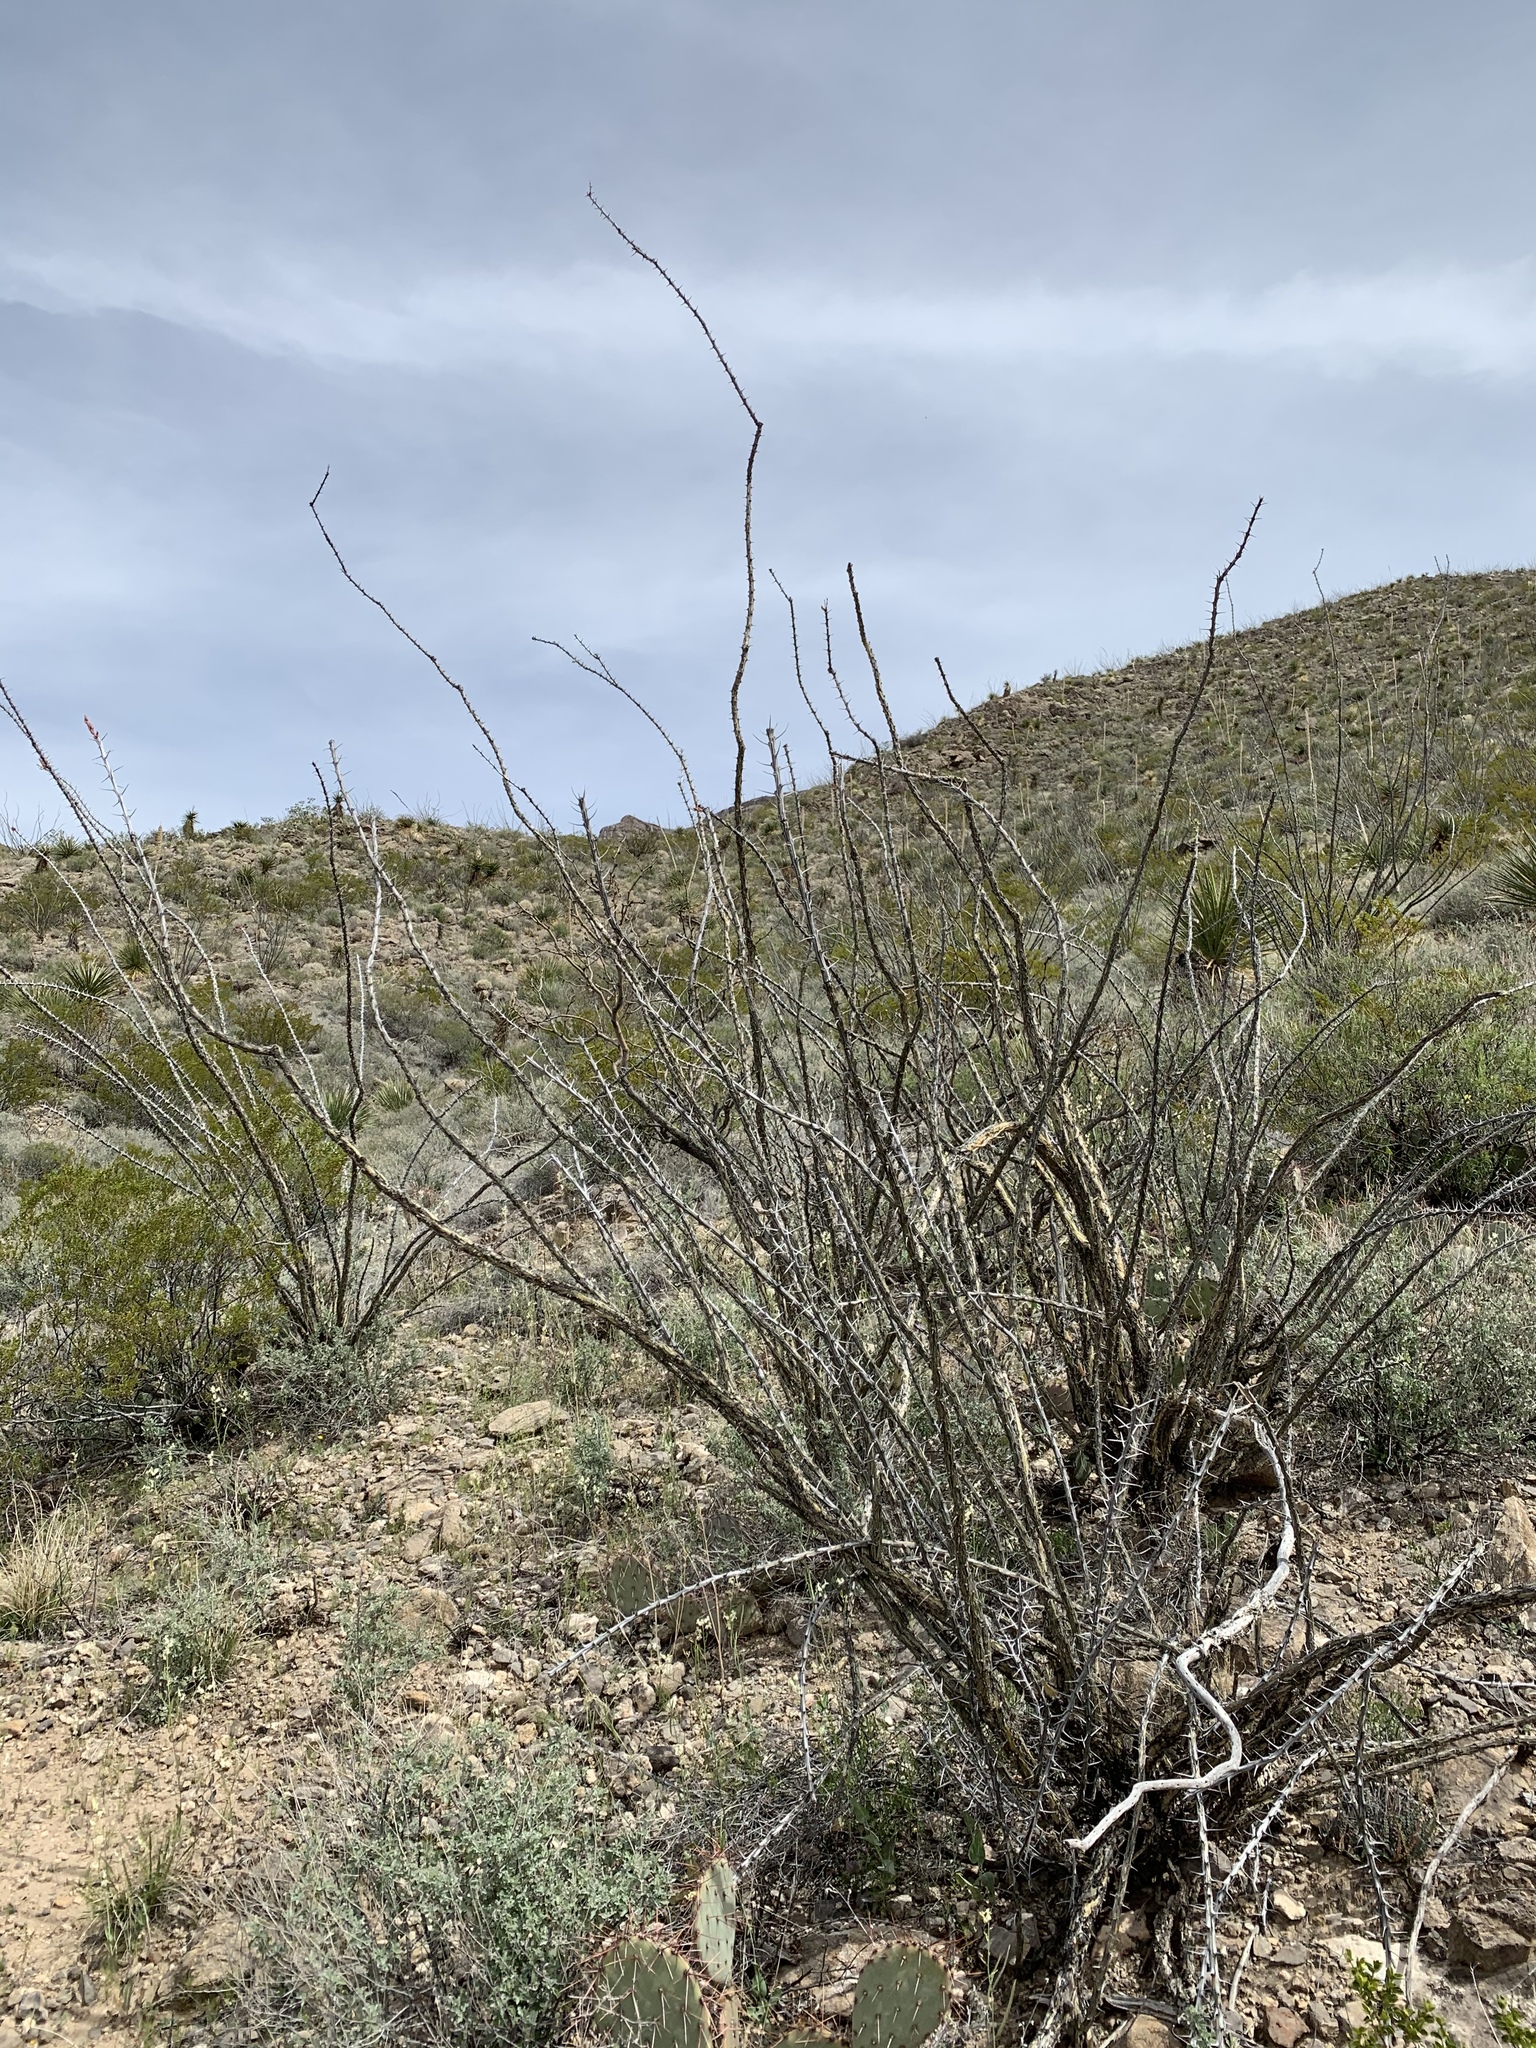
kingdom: Plantae
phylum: Tracheophyta
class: Magnoliopsida
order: Ericales
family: Fouquieriaceae
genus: Fouquieria
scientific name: Fouquieria splendens
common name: Vine-cactus
